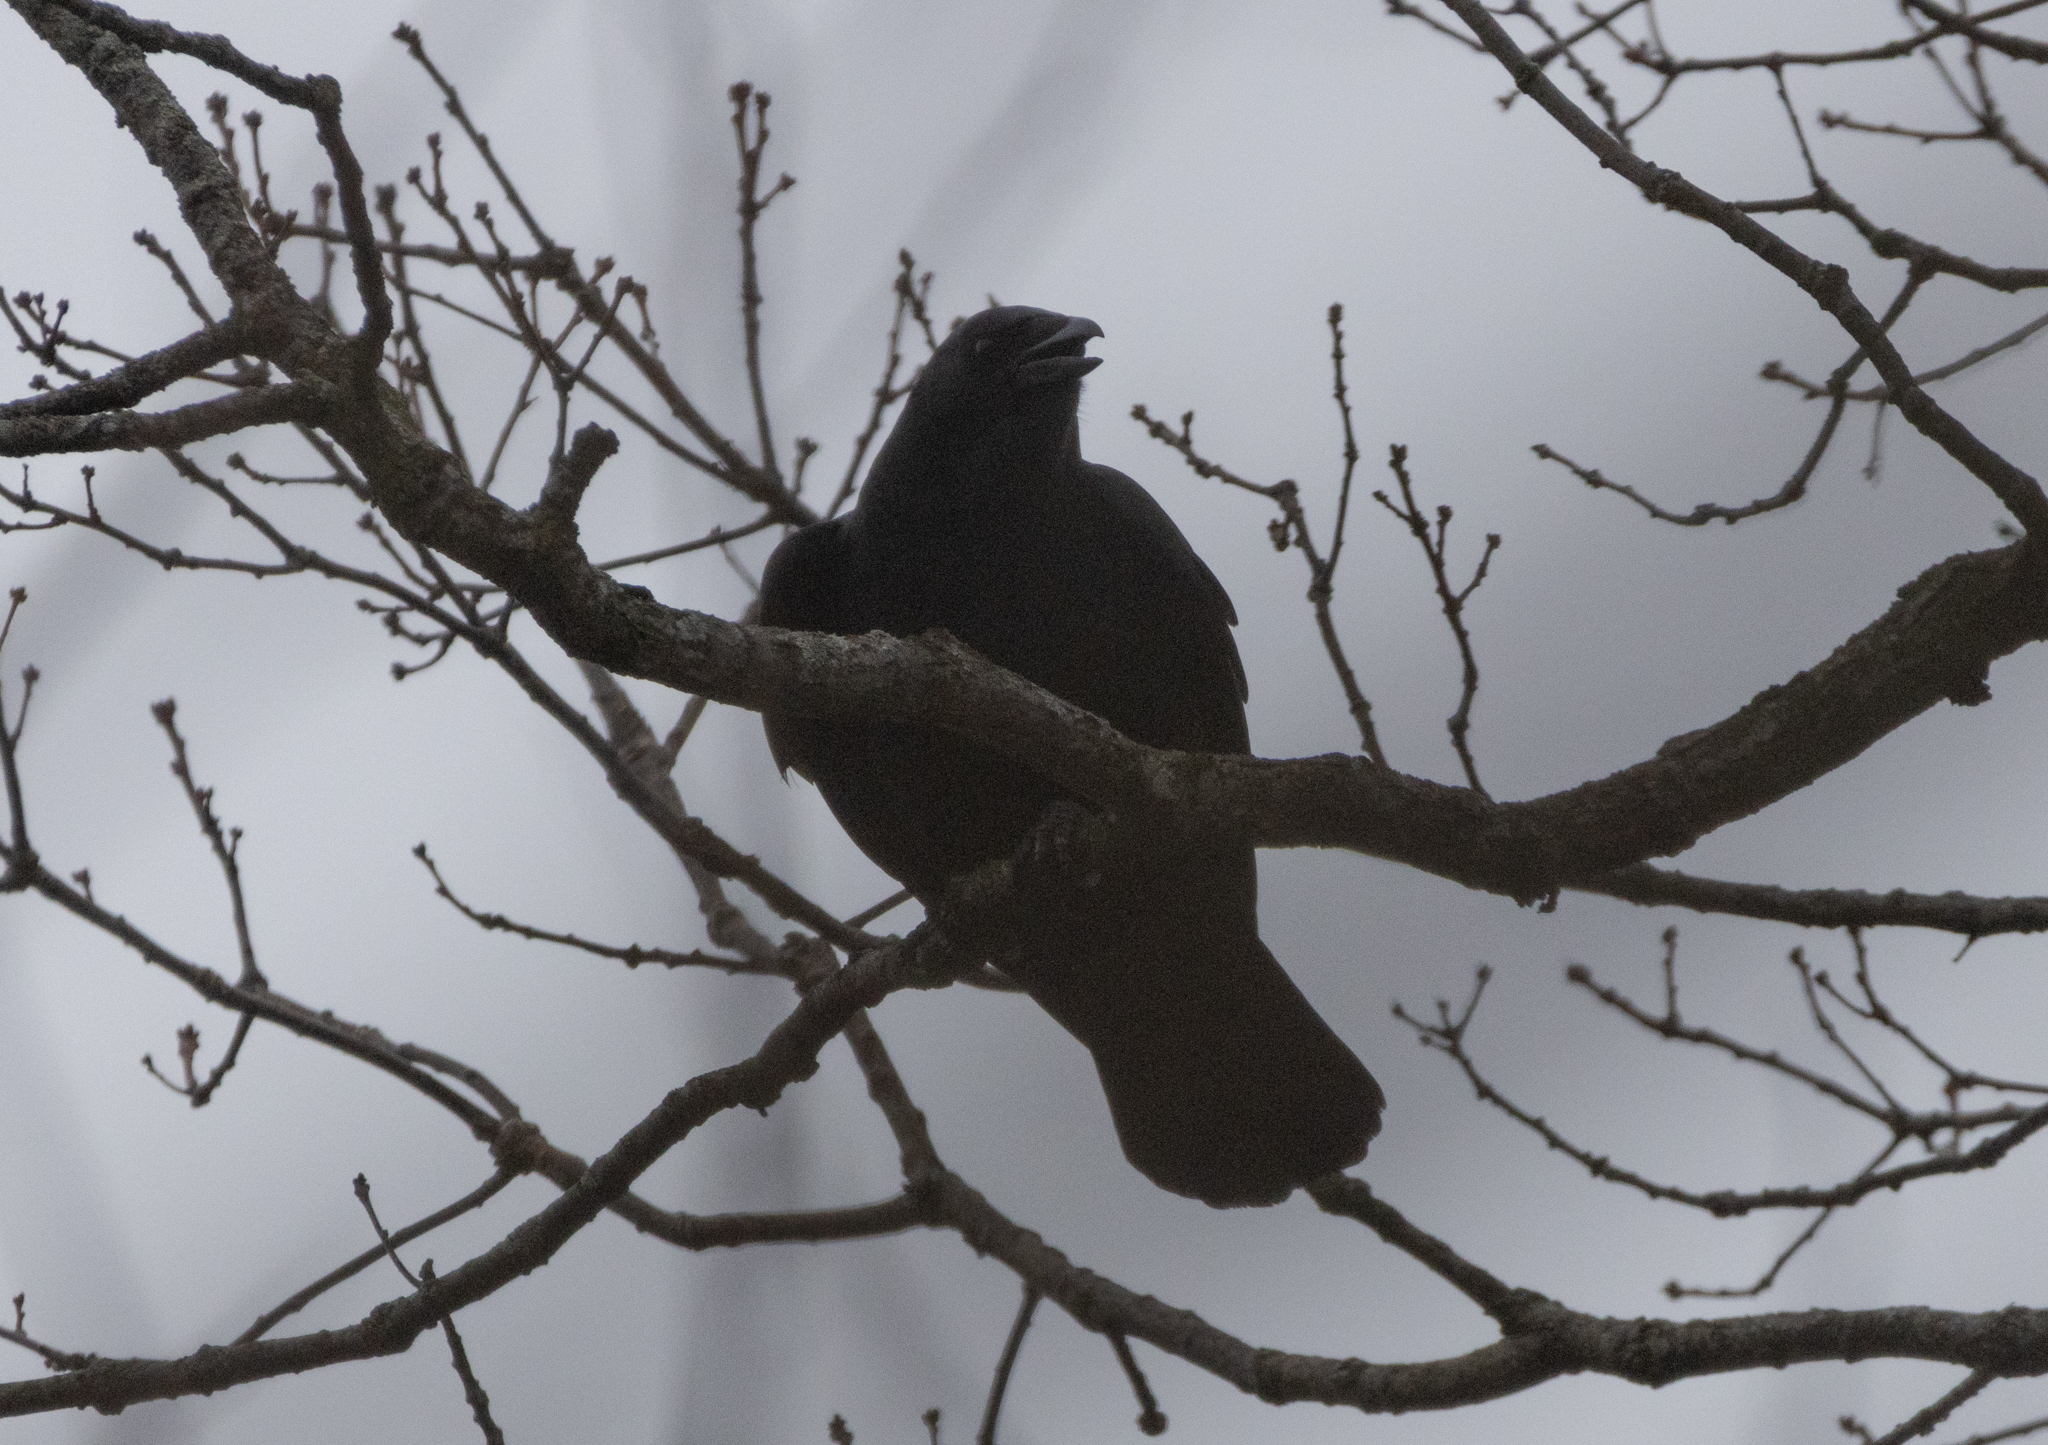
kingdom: Animalia
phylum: Chordata
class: Aves
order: Passeriformes
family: Corvidae
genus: Corvus
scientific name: Corvus brachyrhynchos
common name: American crow
